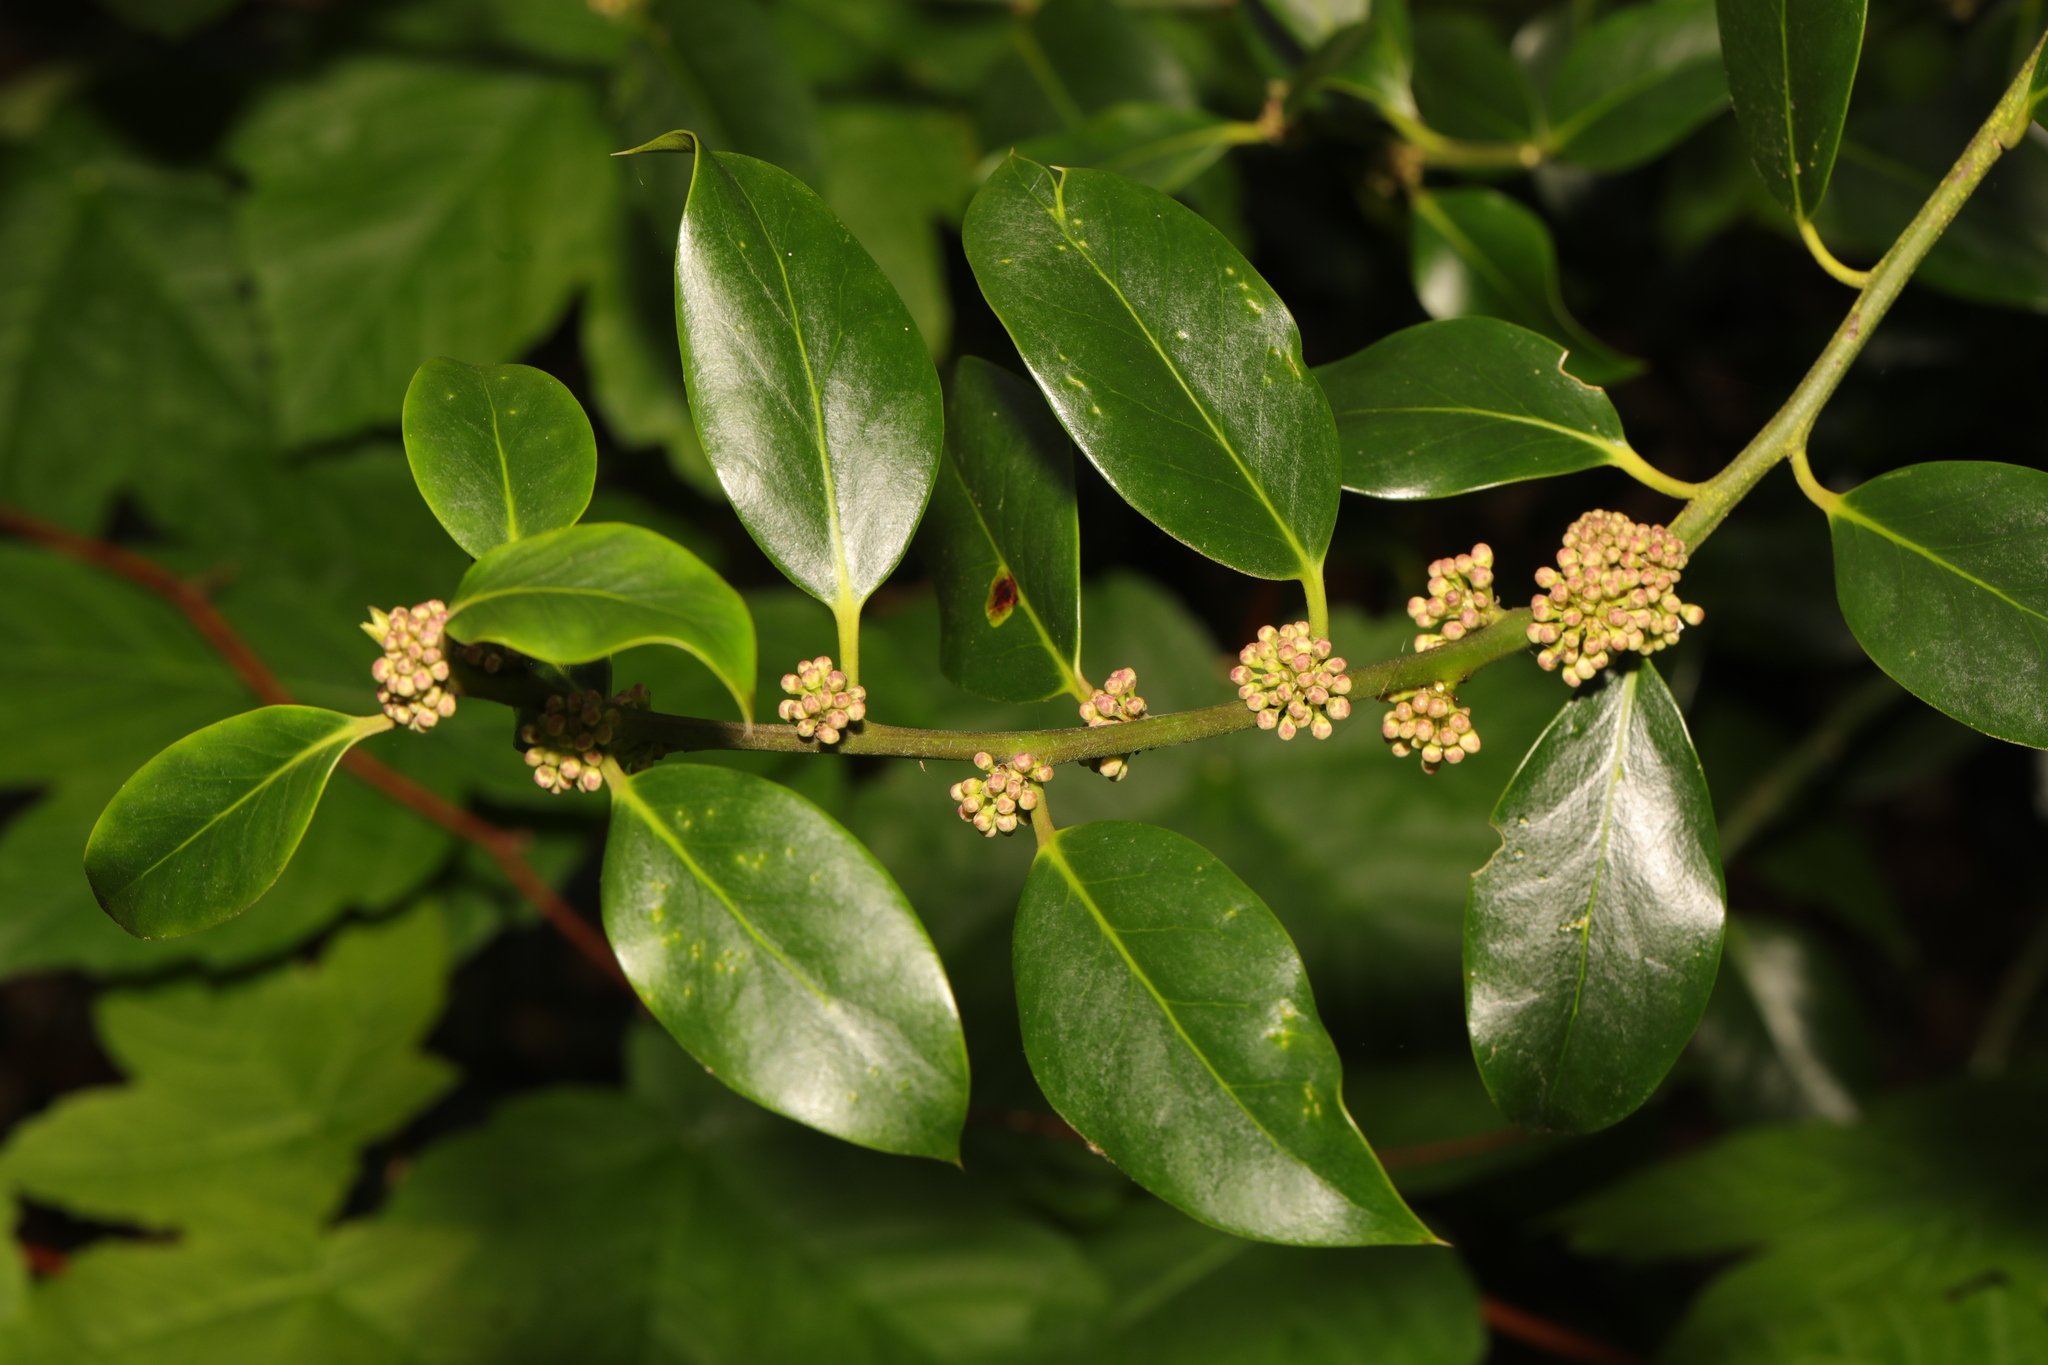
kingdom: Plantae
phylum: Tracheophyta
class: Magnoliopsida
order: Aquifoliales
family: Aquifoliaceae
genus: Ilex
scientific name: Ilex aquifolium
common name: English holly
